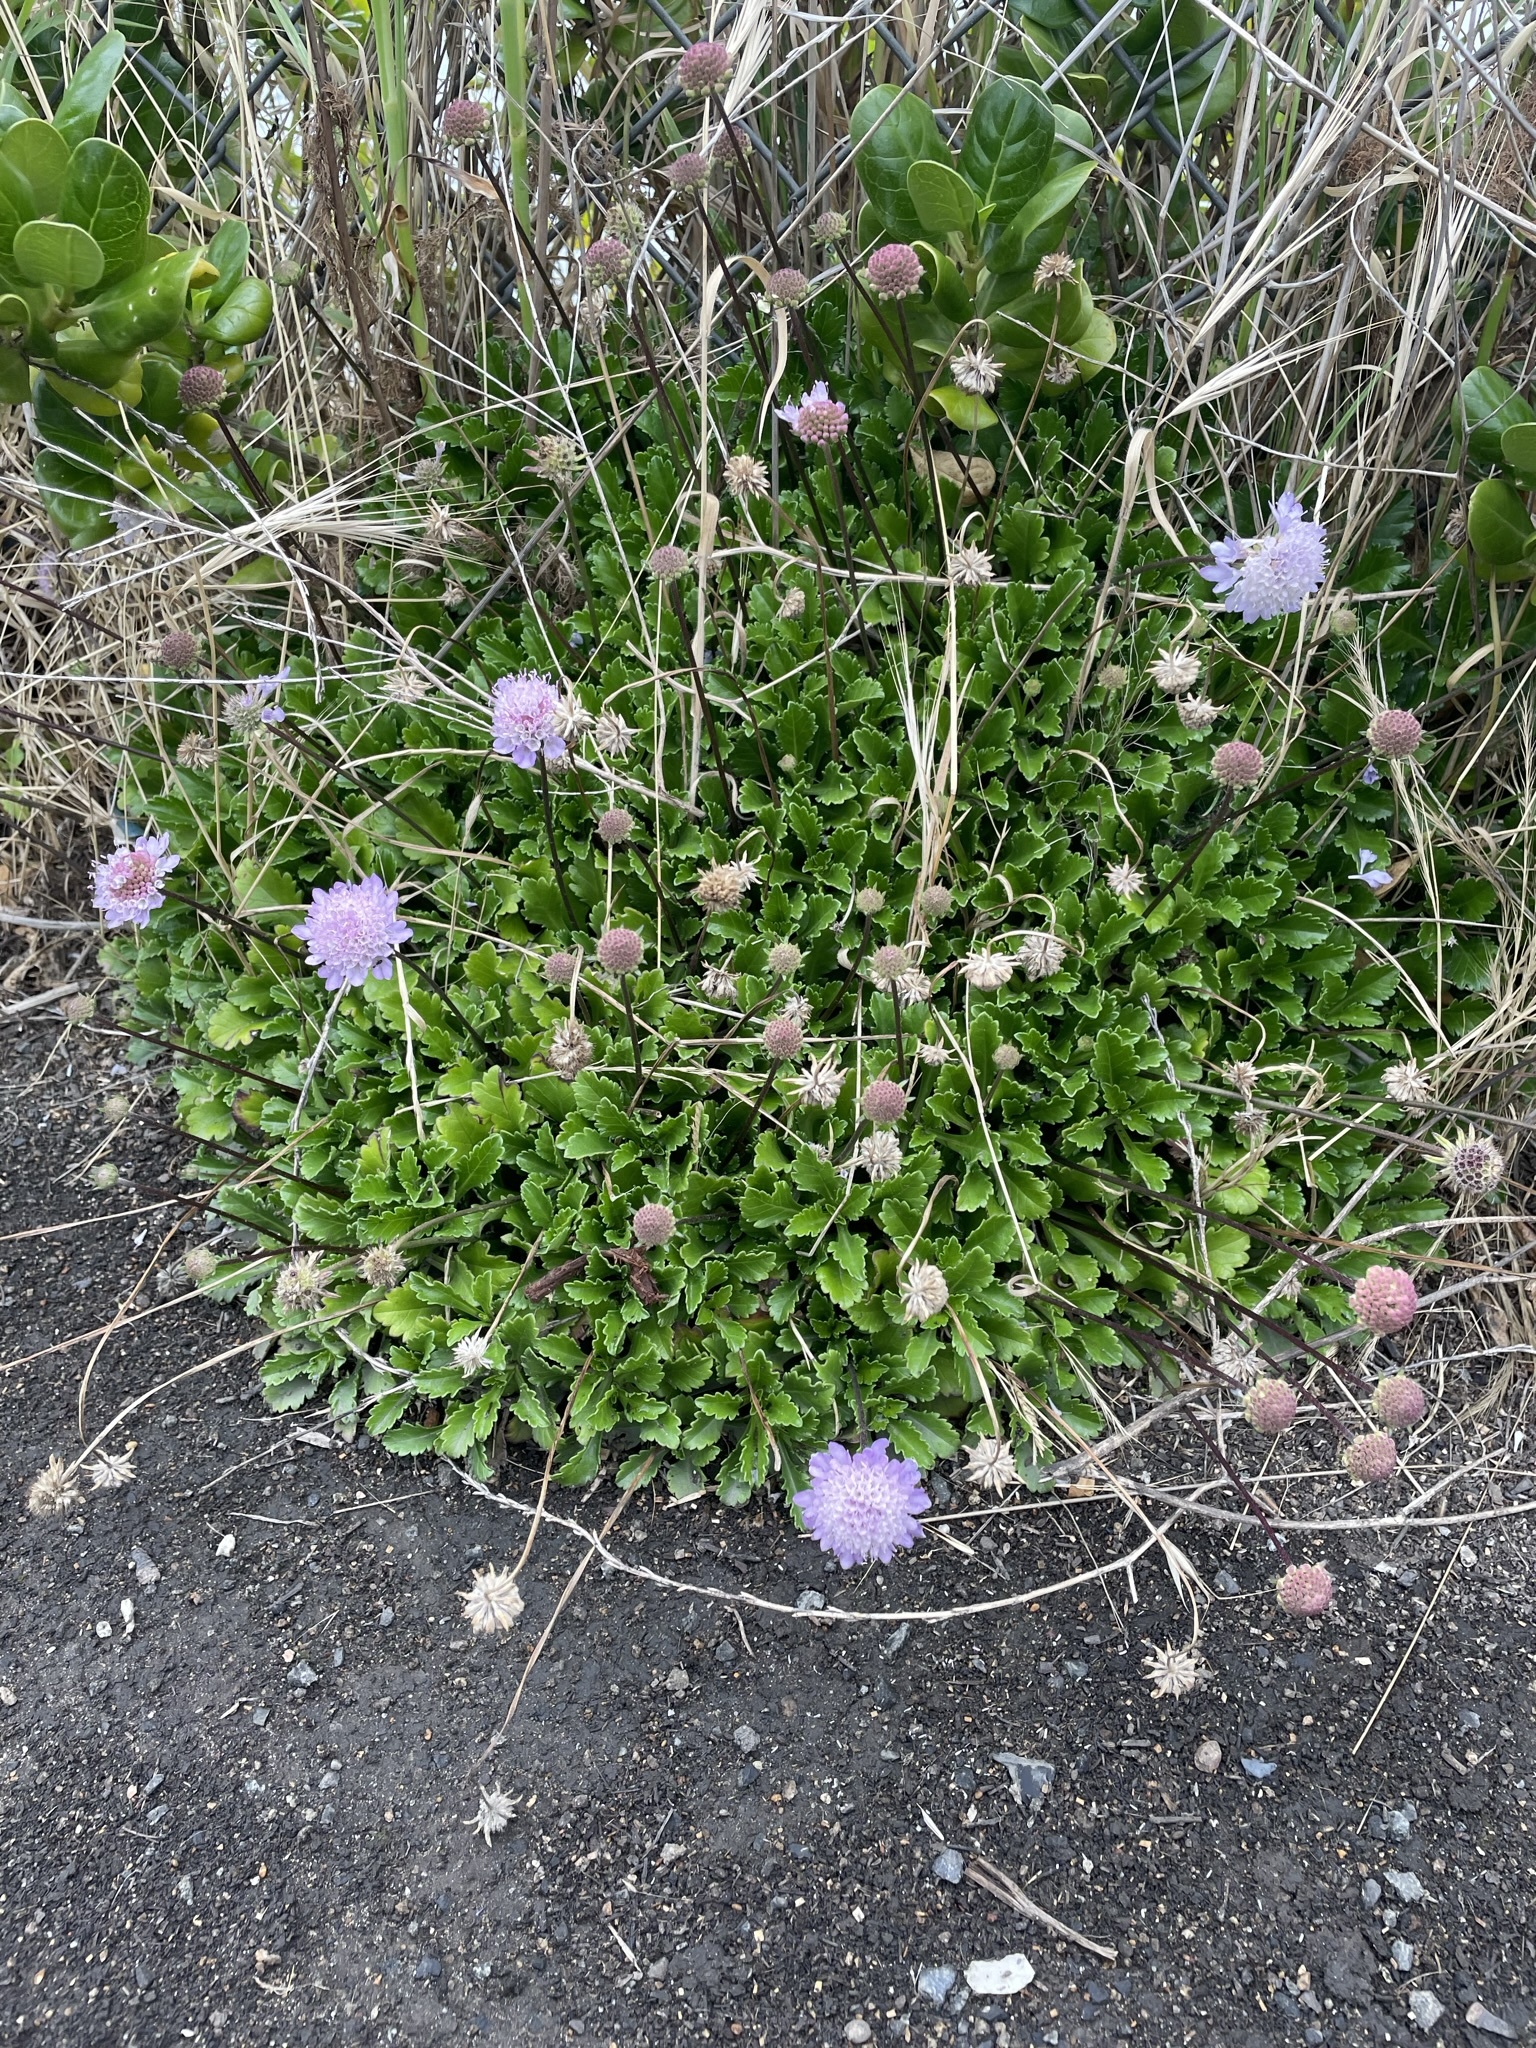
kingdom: Plantae
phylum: Tracheophyta
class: Magnoliopsida
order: Dipsacales
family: Caprifoliaceae
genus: Sixalix
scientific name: Sixalix atropurpurea
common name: Sweet scabious
